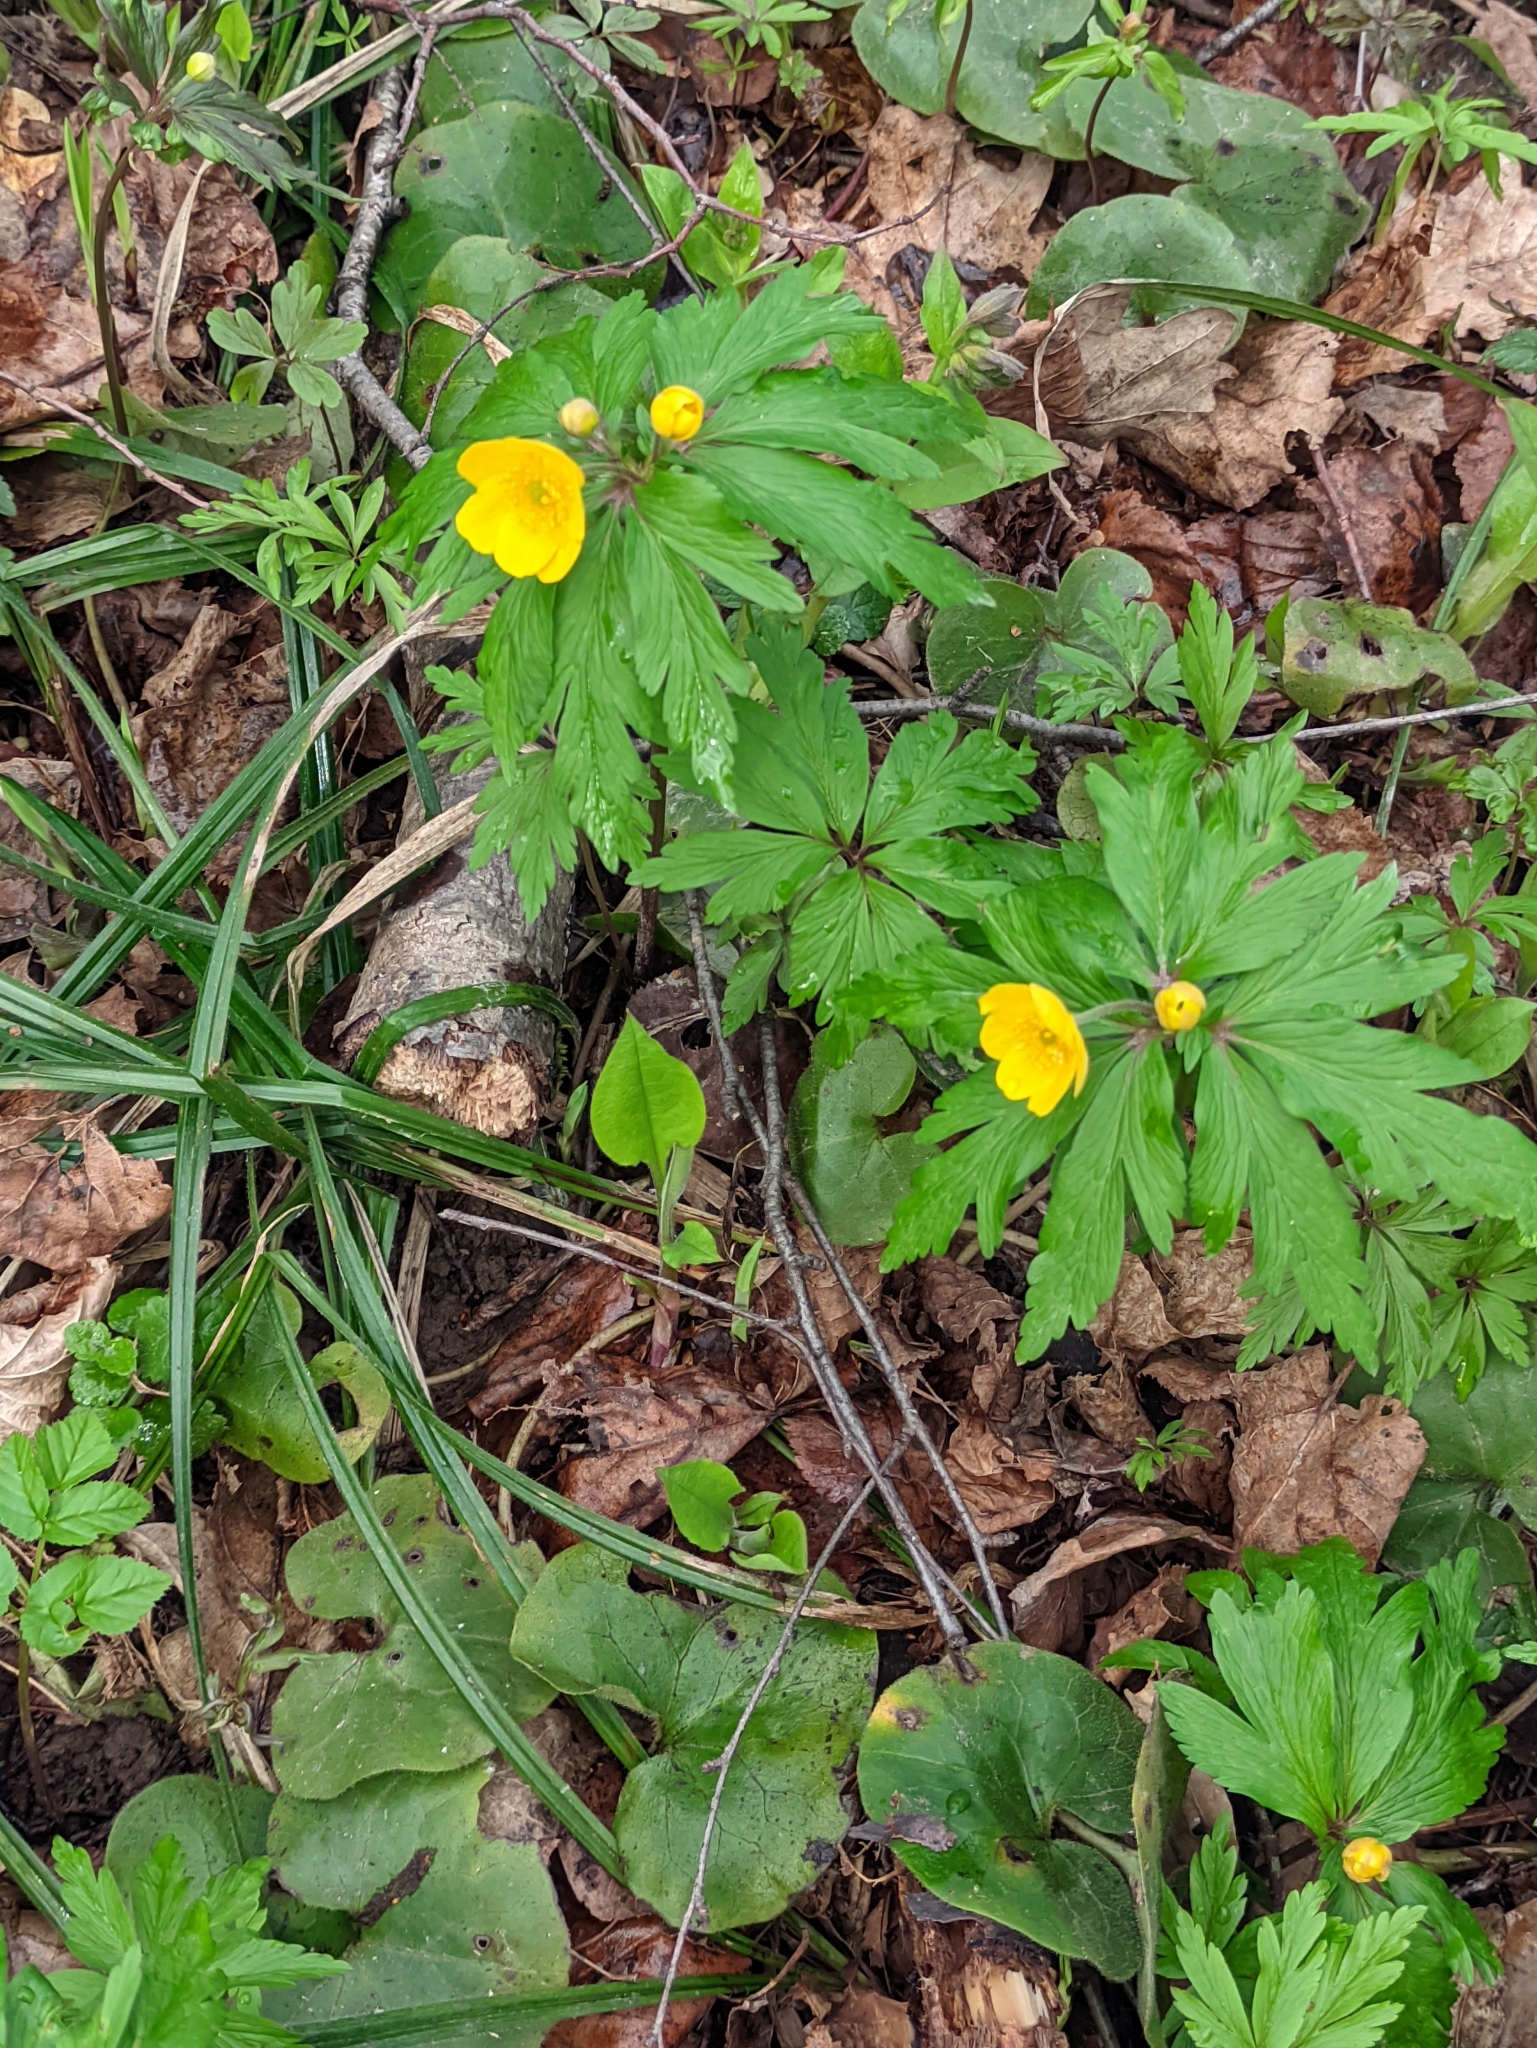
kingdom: Plantae
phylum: Tracheophyta
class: Magnoliopsida
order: Ranunculales
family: Ranunculaceae
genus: Anemone
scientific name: Anemone ranunculoides
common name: Yellow anemone
